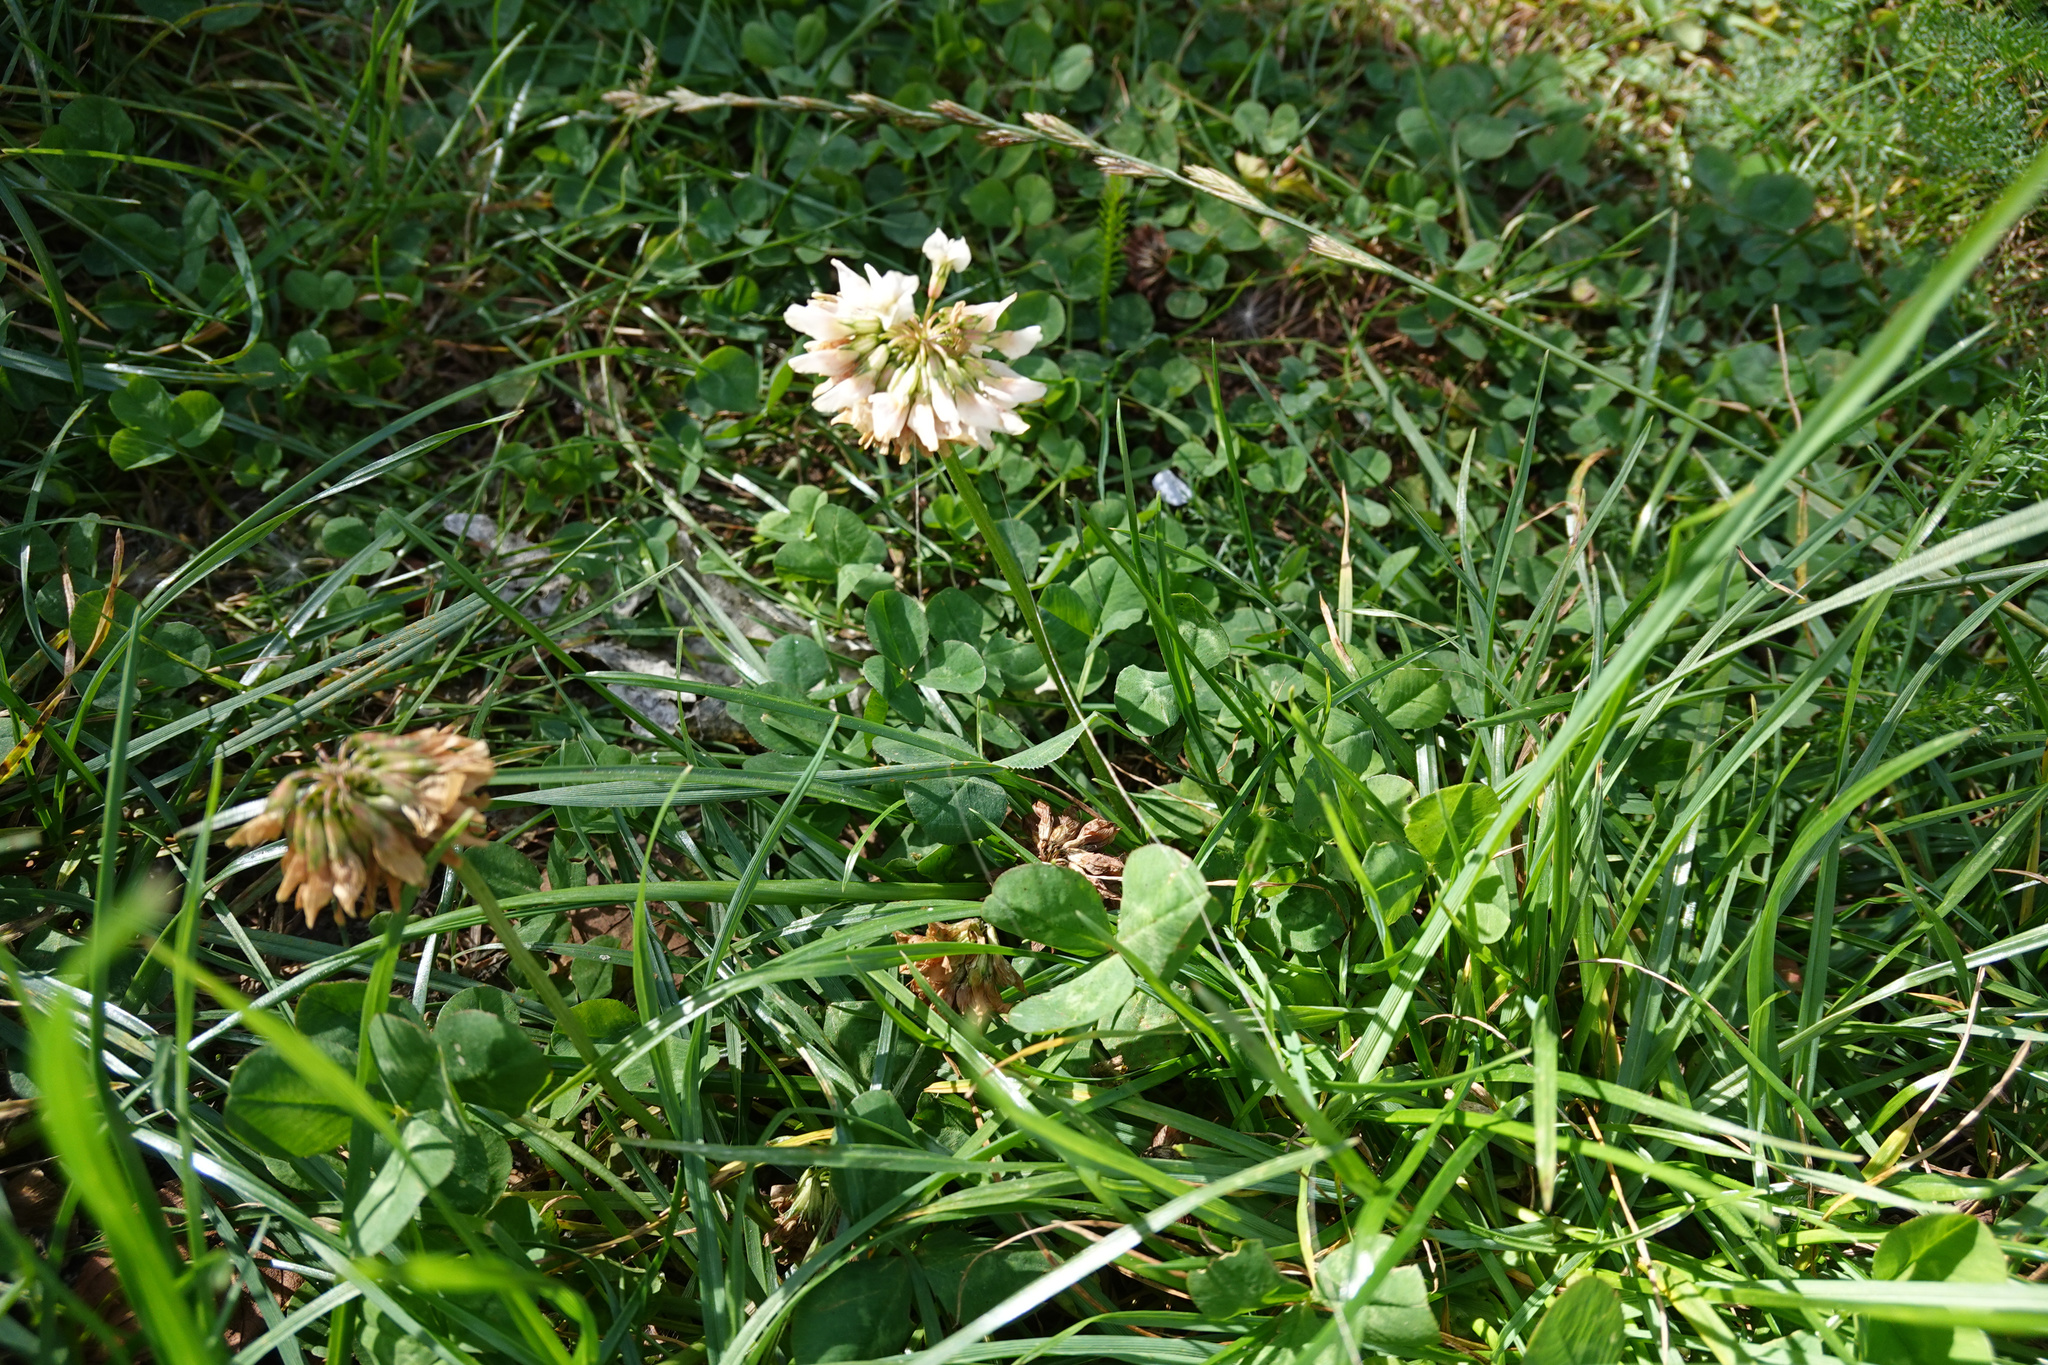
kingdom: Plantae
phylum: Tracheophyta
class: Magnoliopsida
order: Fabales
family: Fabaceae
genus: Trifolium
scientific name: Trifolium repens
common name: White clover
